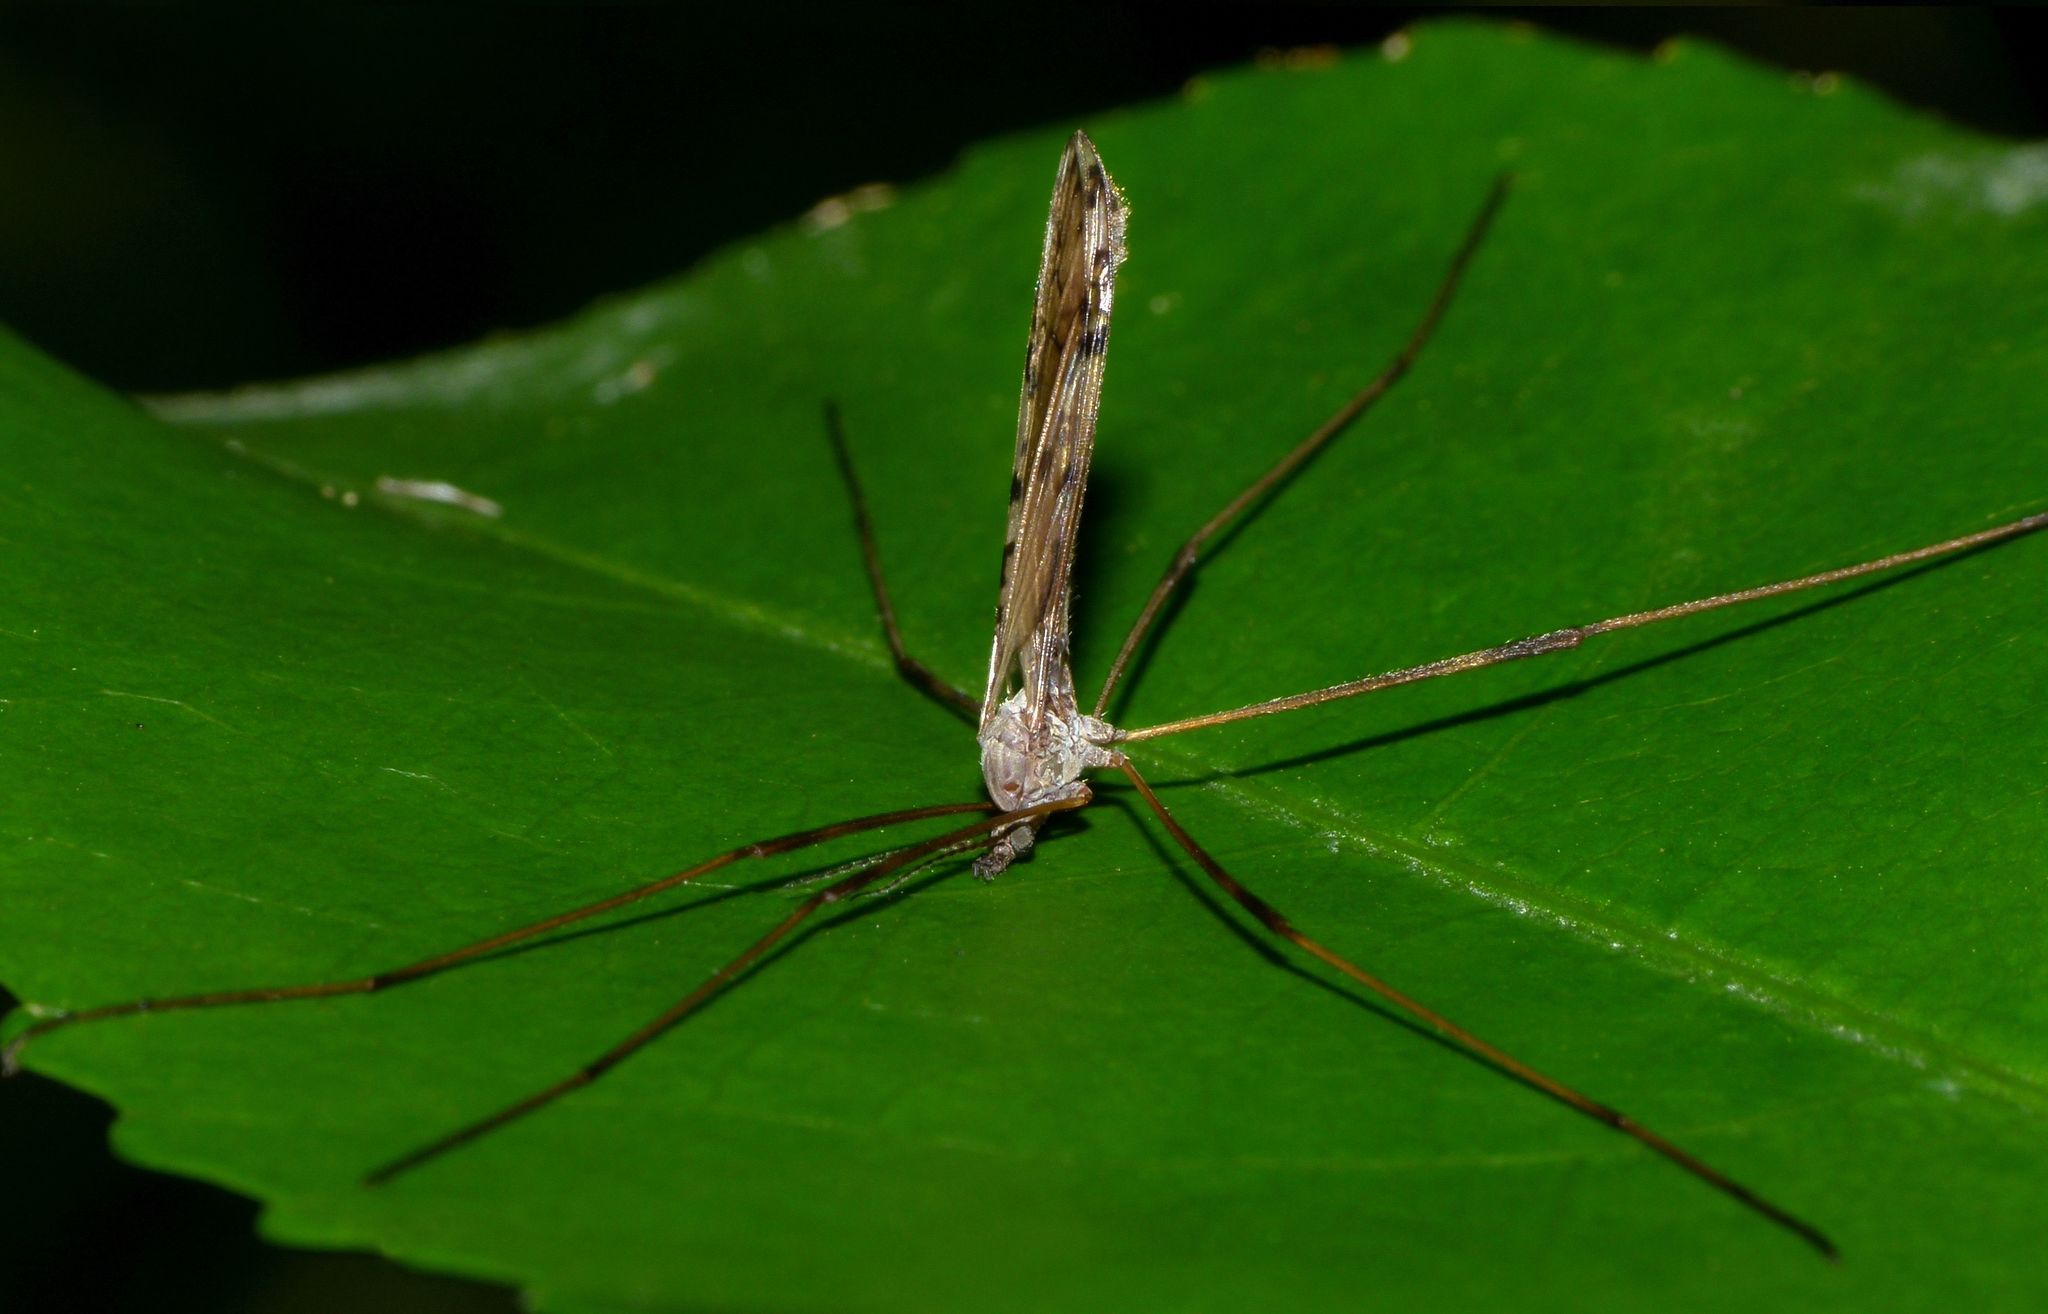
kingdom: Animalia
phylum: Arthropoda
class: Insecta
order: Diptera
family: Limoniidae
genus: Paralimnophila
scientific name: Paralimnophila skusei
